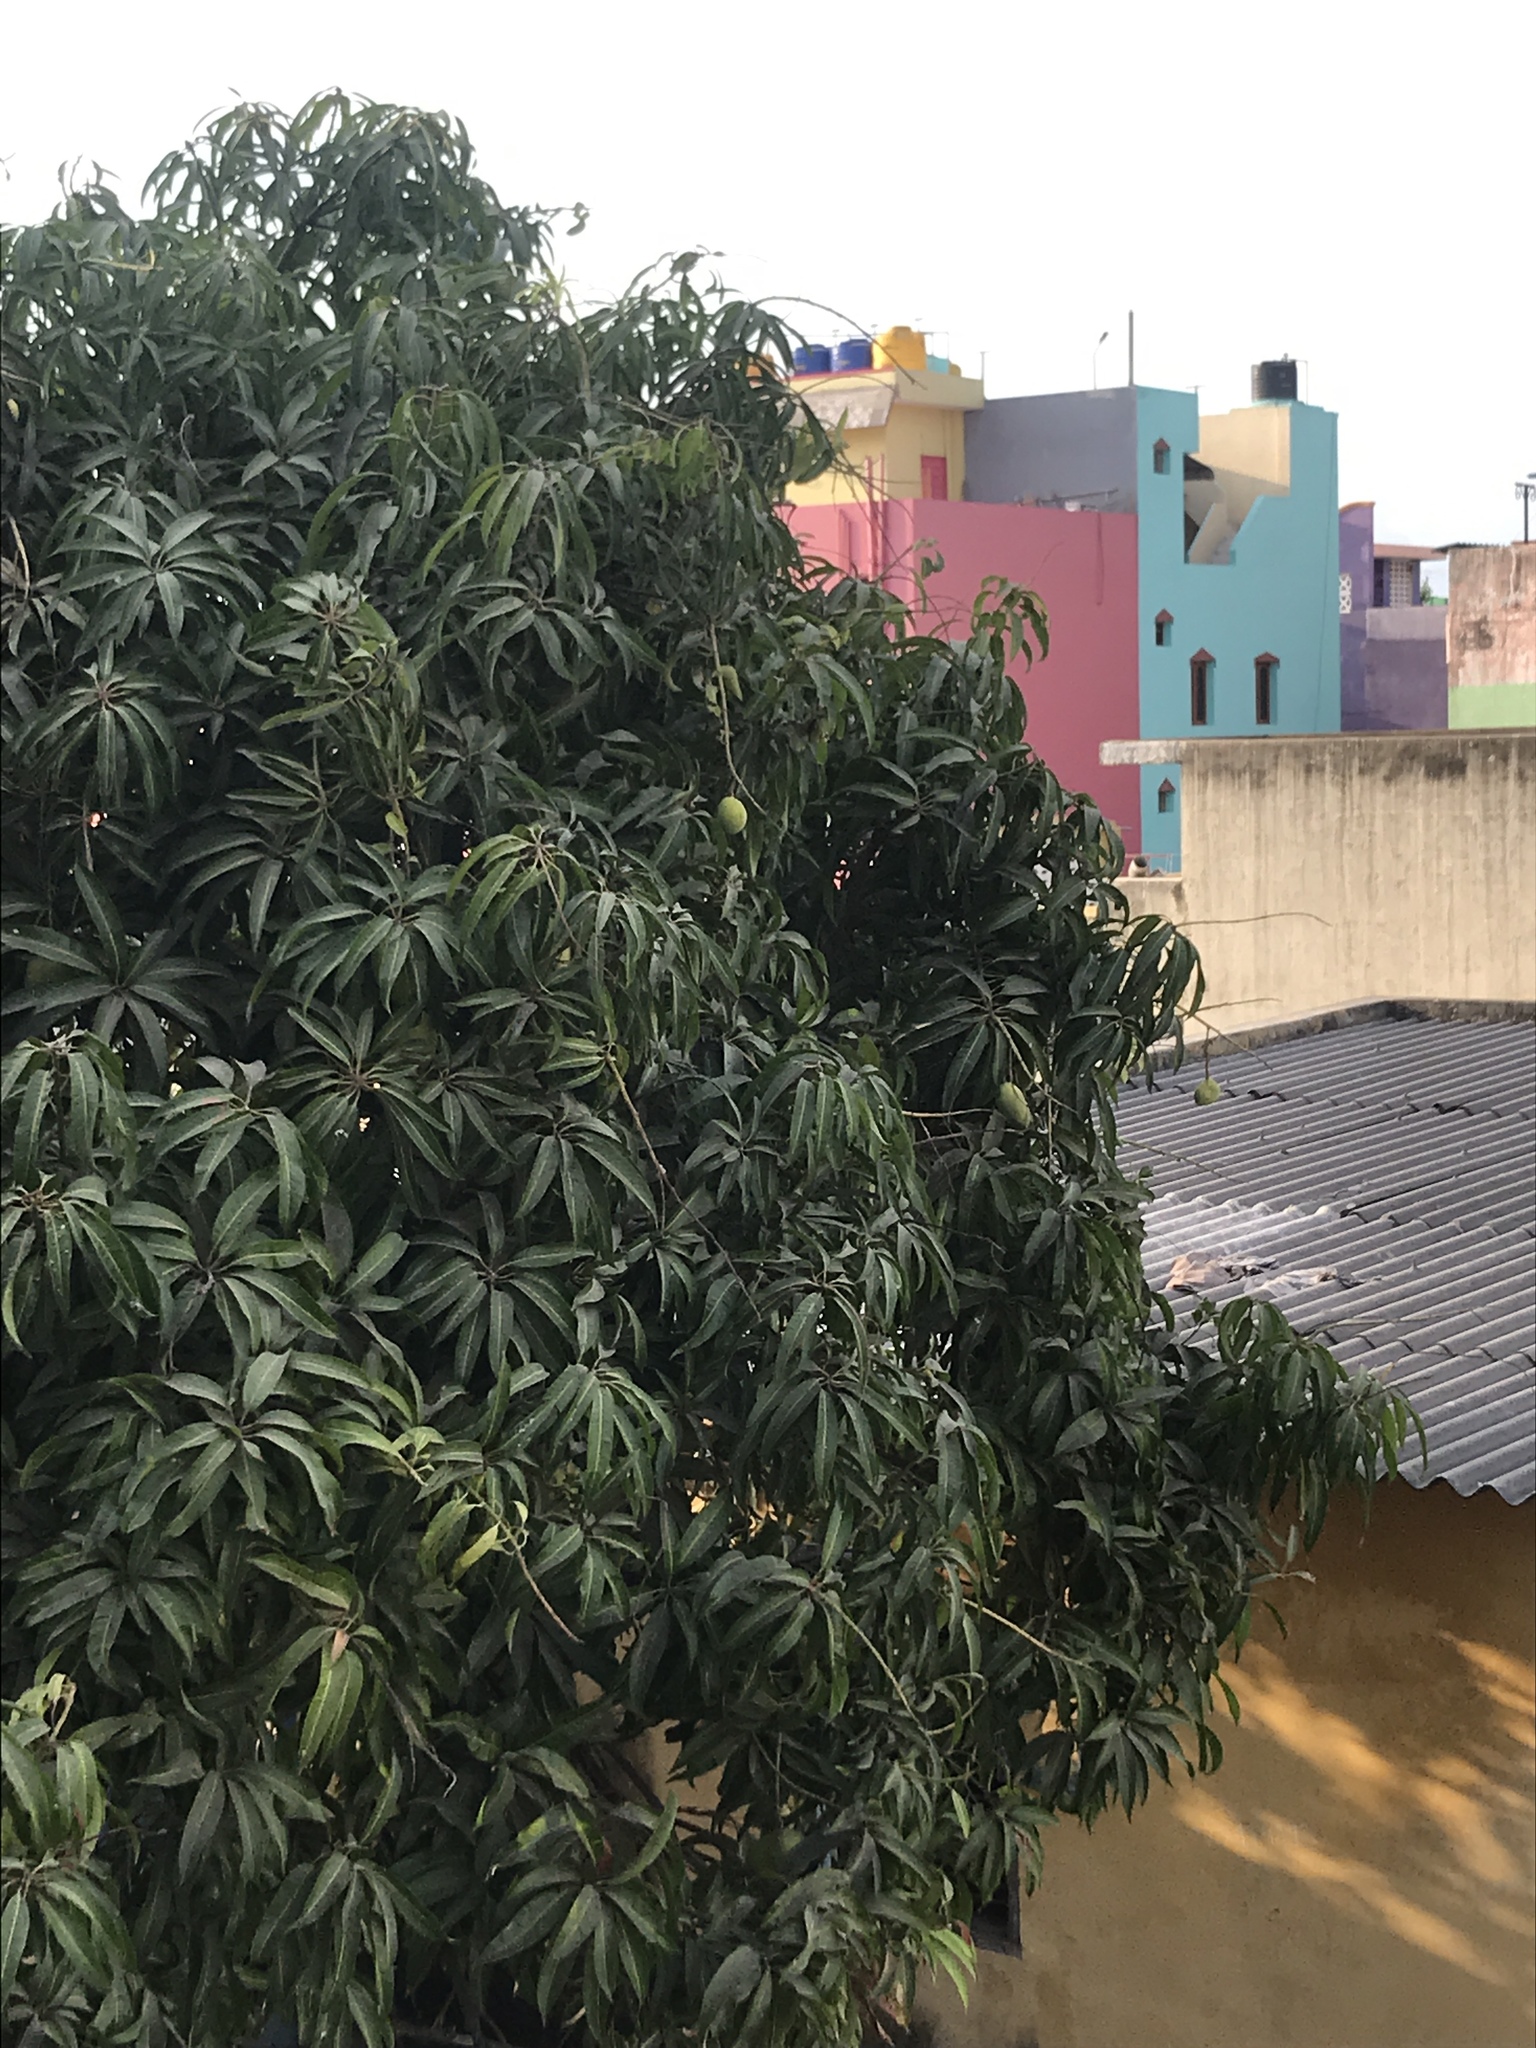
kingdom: Plantae
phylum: Tracheophyta
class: Magnoliopsida
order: Sapindales
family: Anacardiaceae
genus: Mangifera
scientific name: Mangifera indica
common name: Mango
